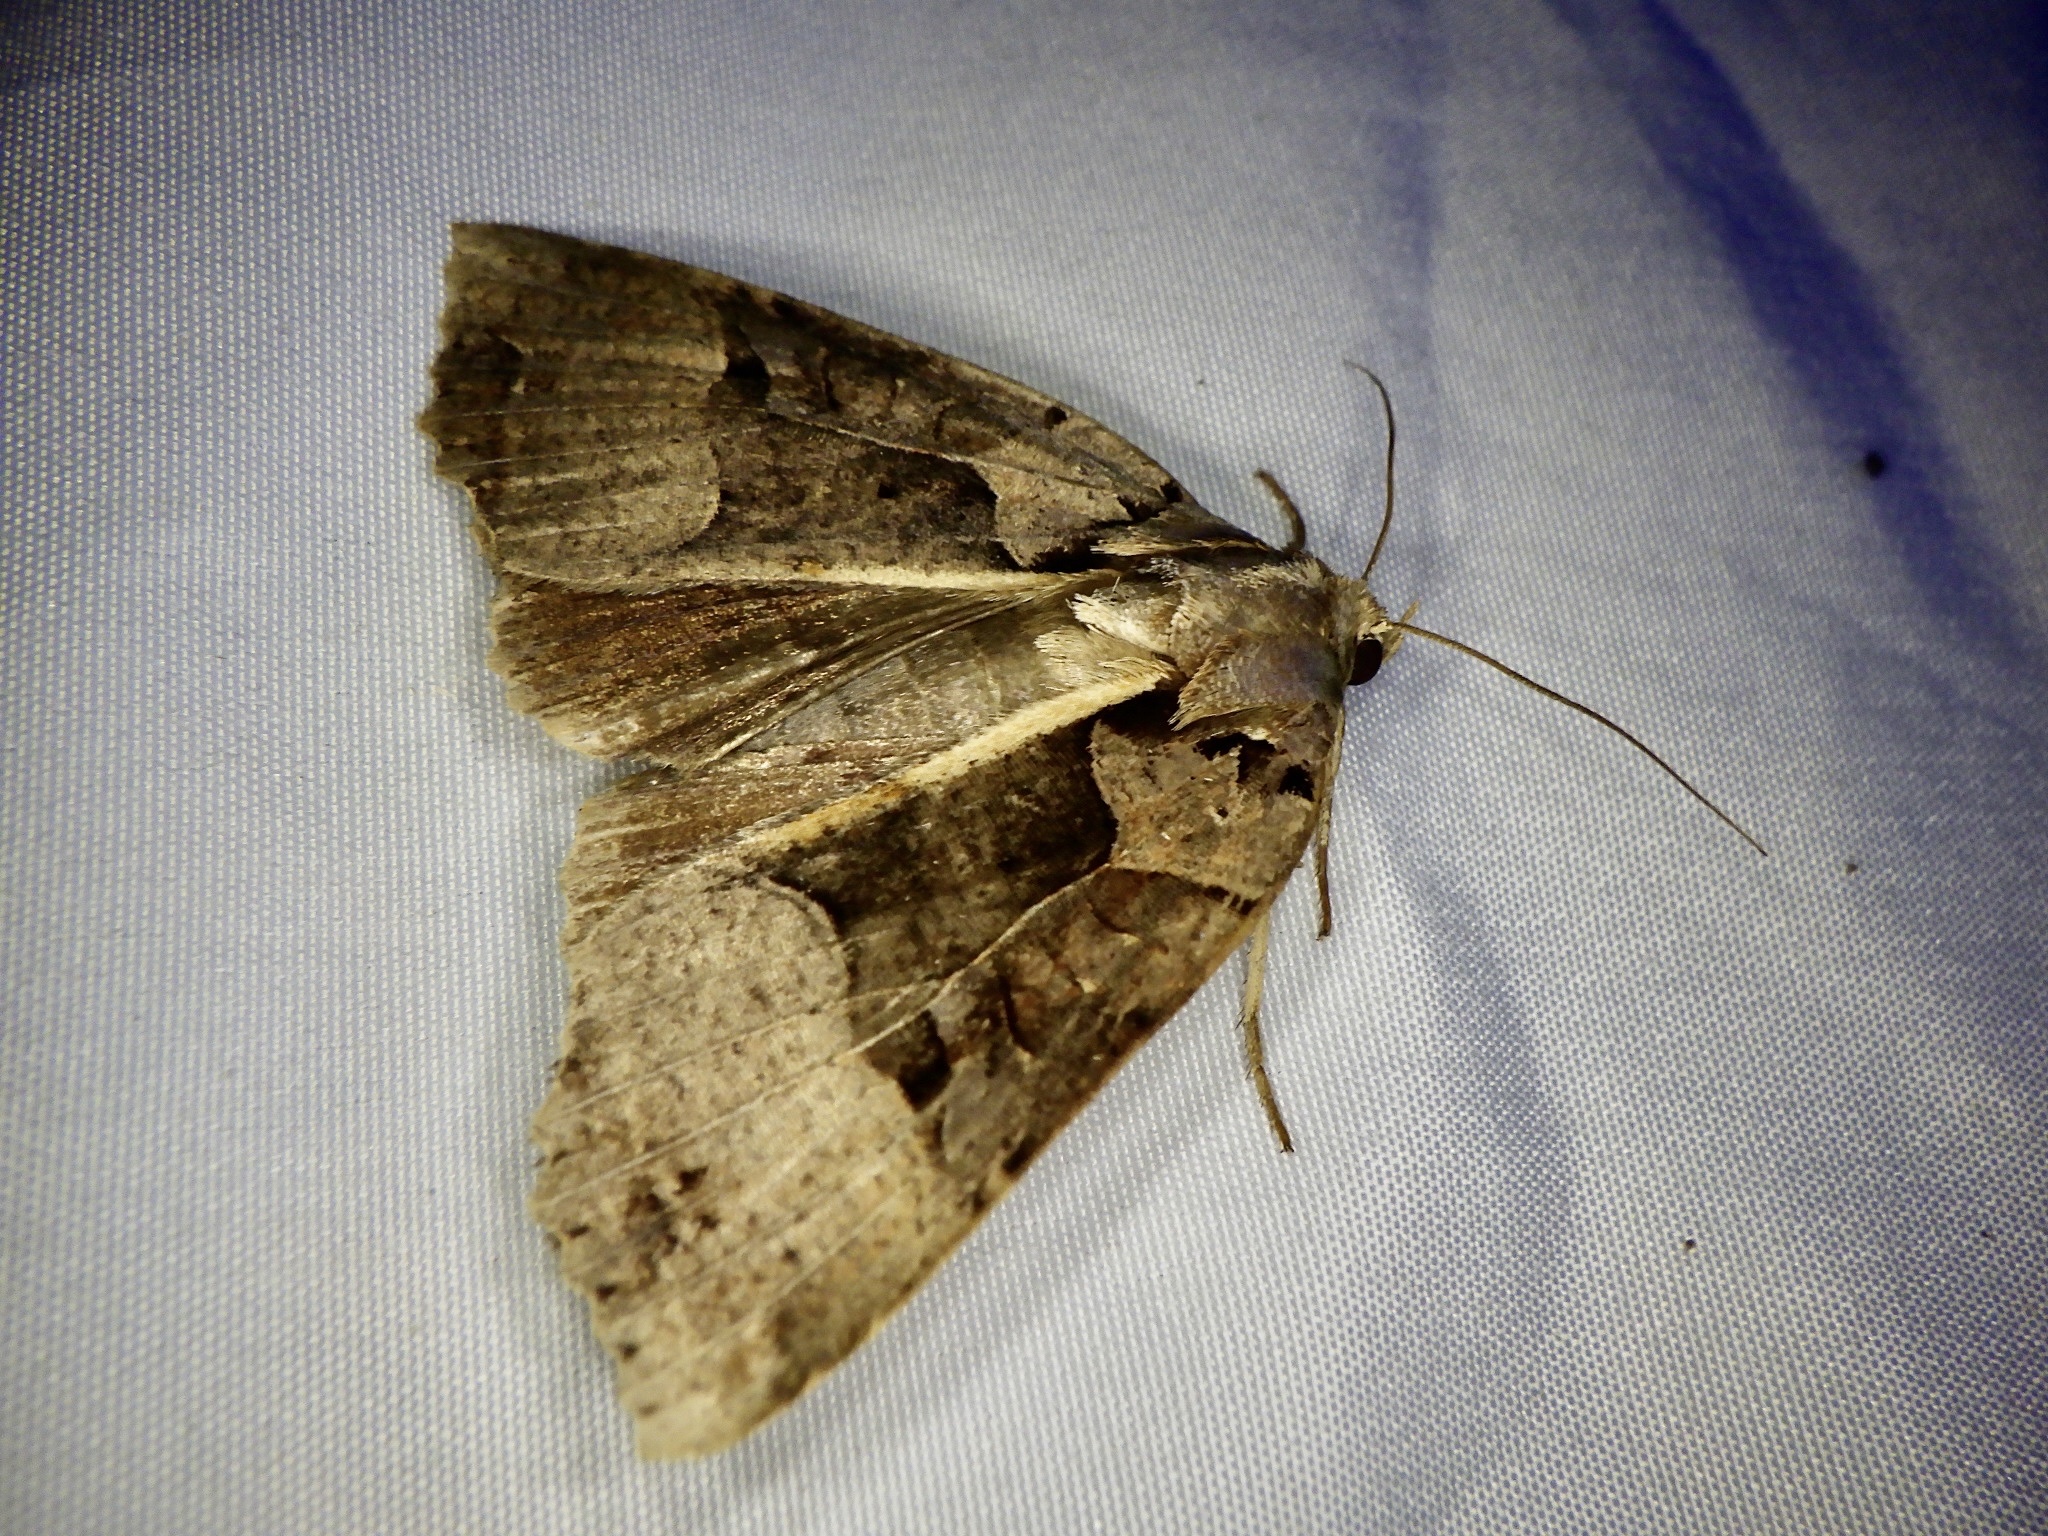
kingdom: Animalia
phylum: Arthropoda
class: Insecta
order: Lepidoptera
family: Noctuidae
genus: Orthogonia
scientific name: Orthogonia sera
